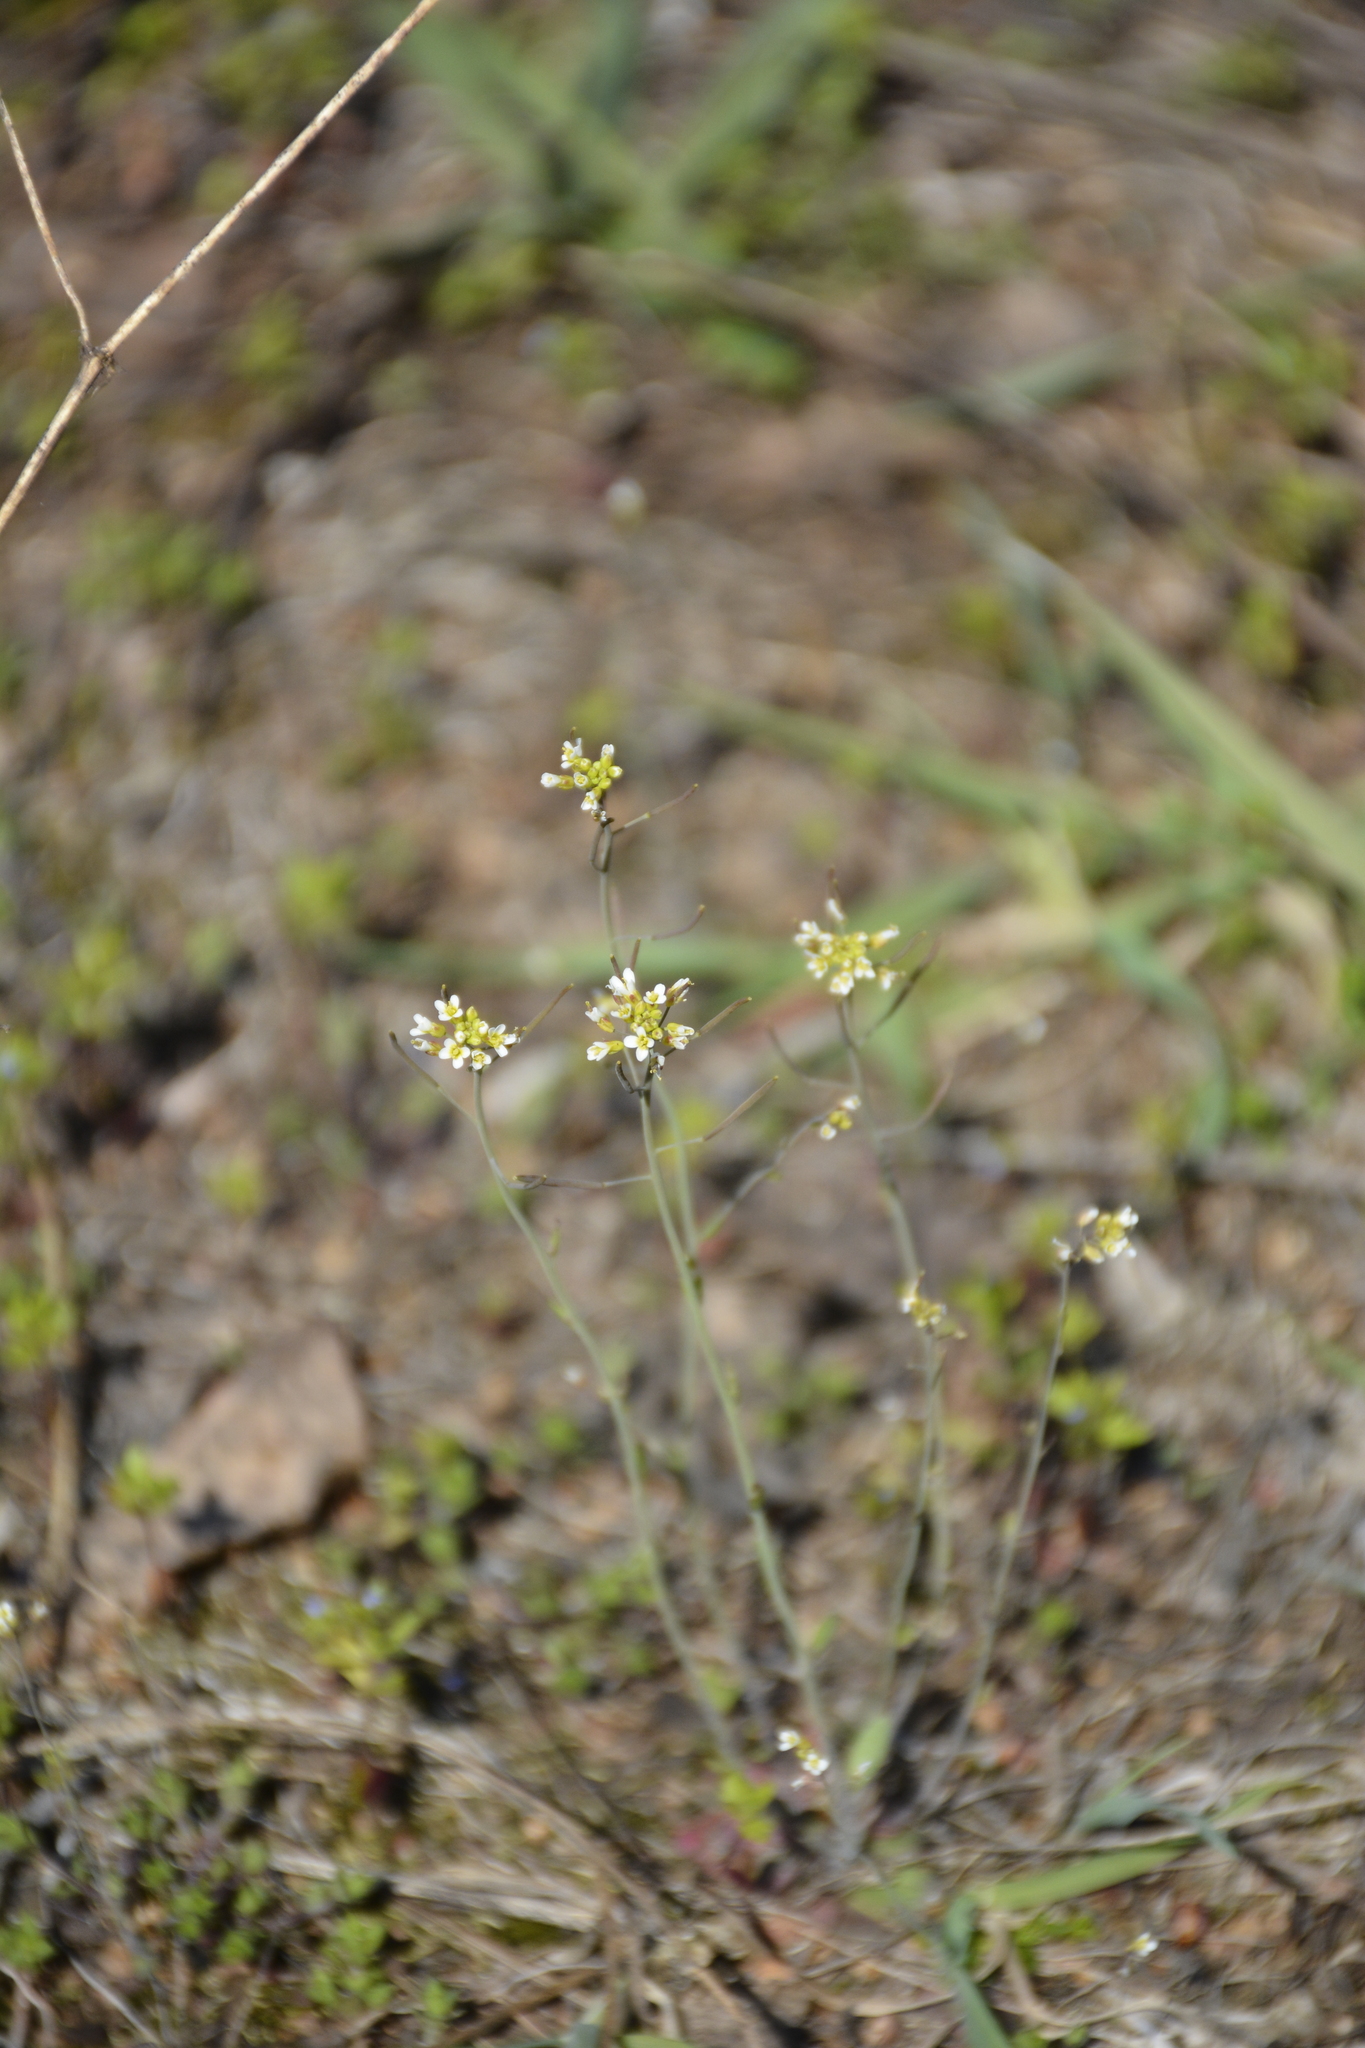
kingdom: Plantae
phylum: Tracheophyta
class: Magnoliopsida
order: Brassicales
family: Brassicaceae
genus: Arabidopsis
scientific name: Arabidopsis thaliana
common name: Thale cress
